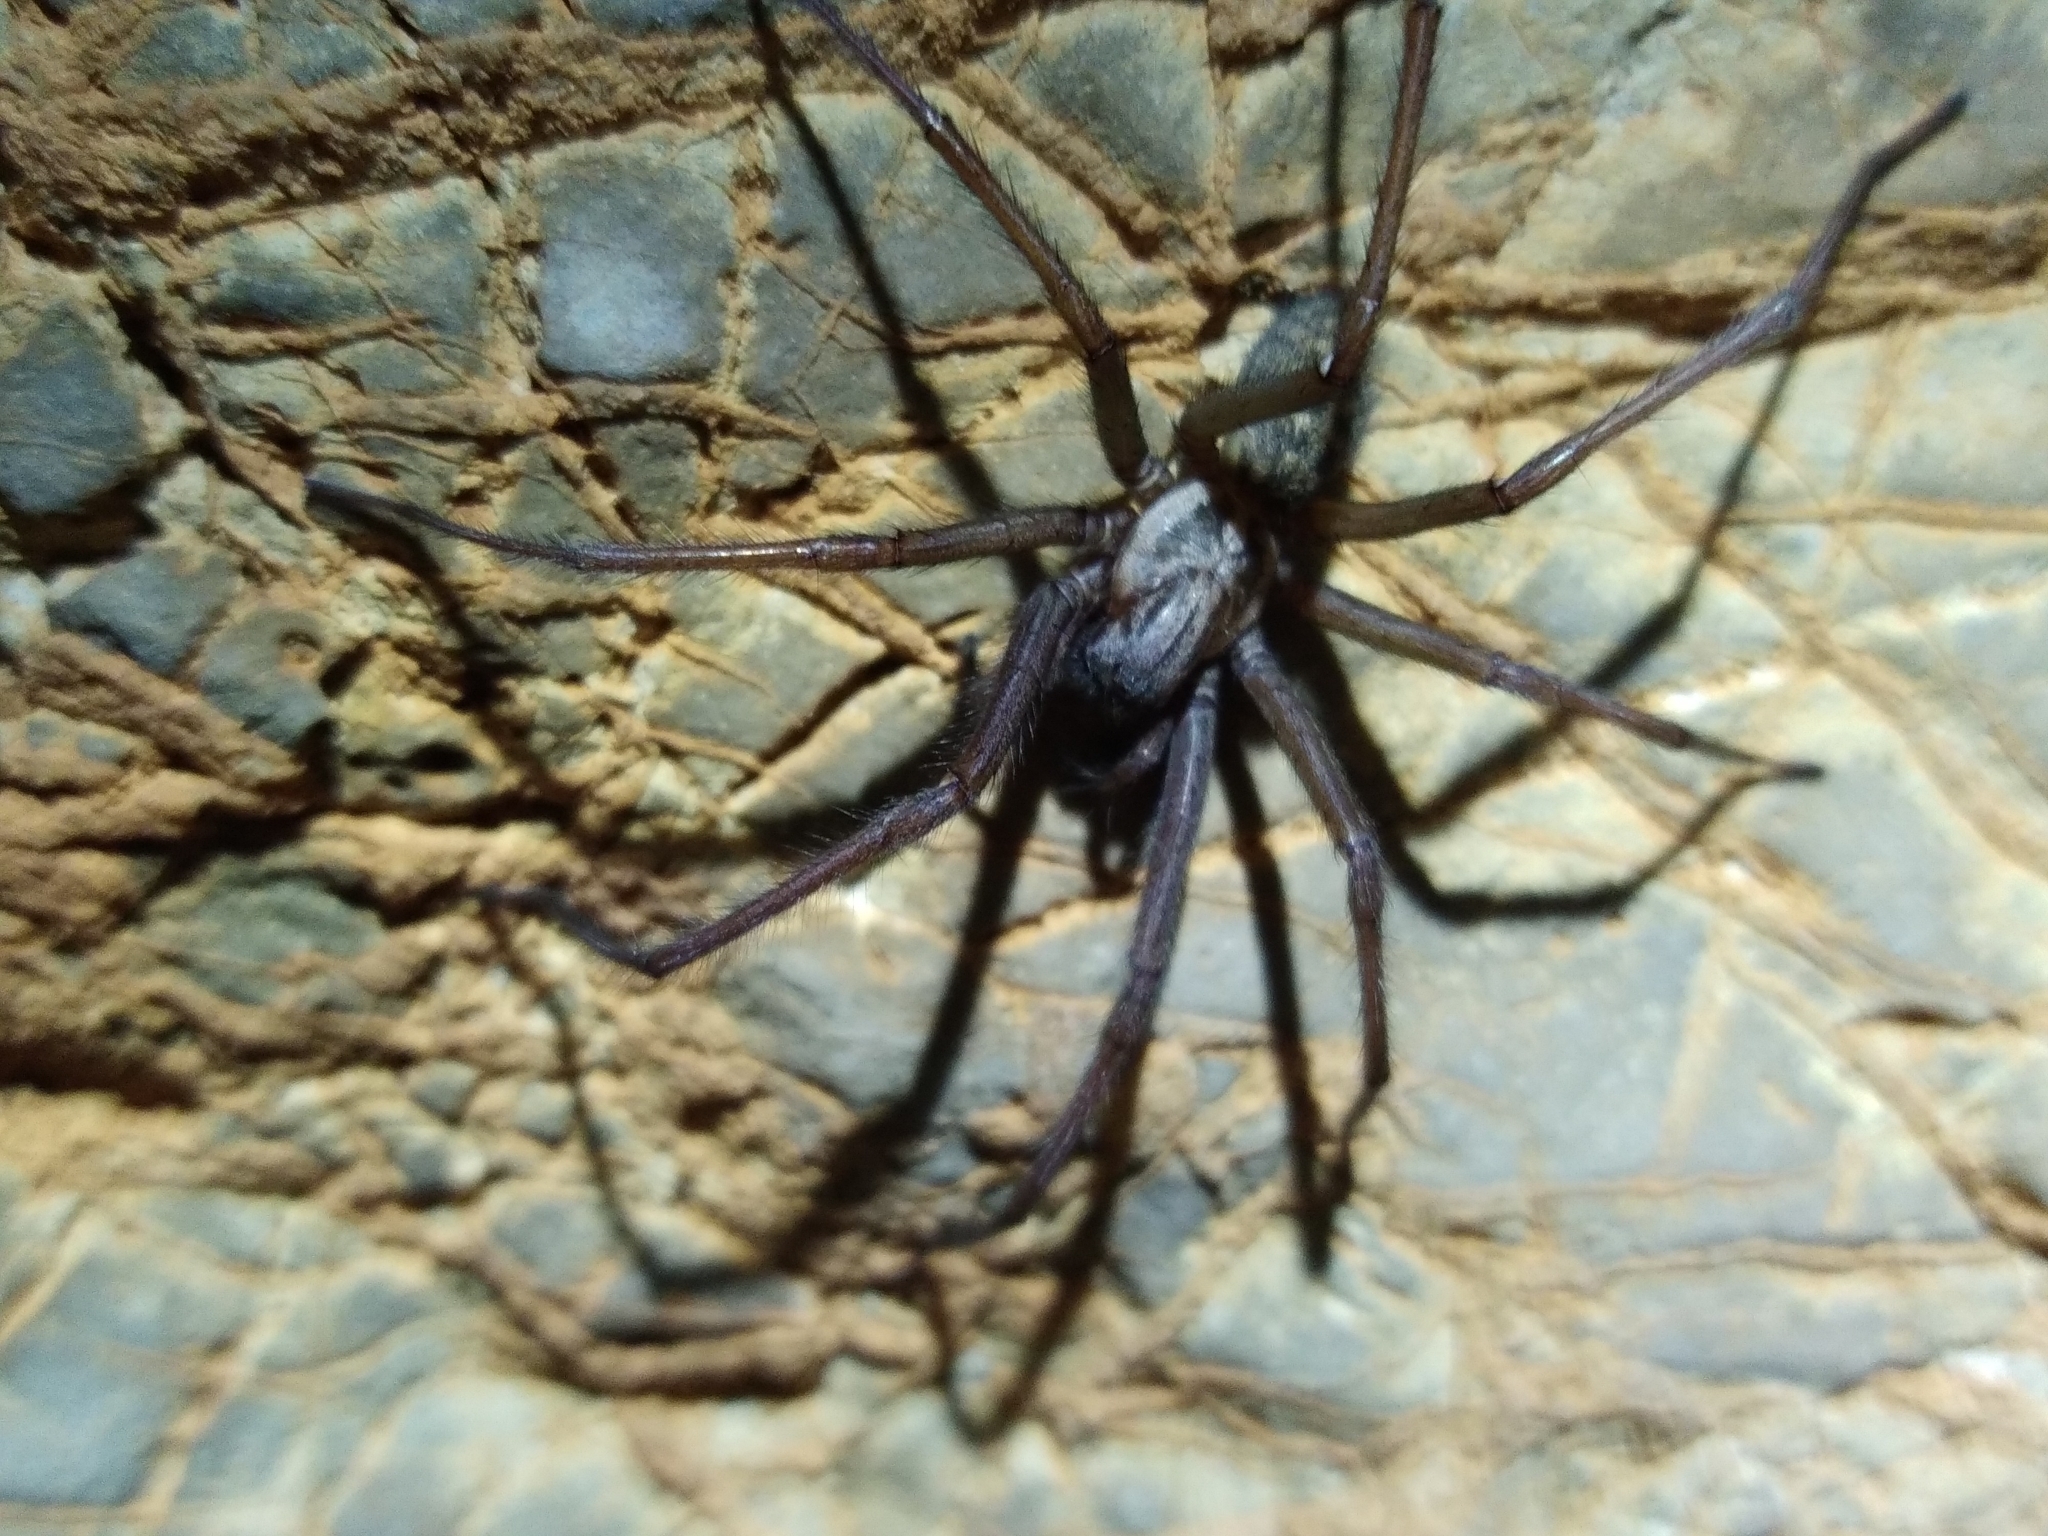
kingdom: Animalia
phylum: Arthropoda
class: Arachnida
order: Araneae
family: Agelenidae
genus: Eratigena
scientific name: Eratigena
